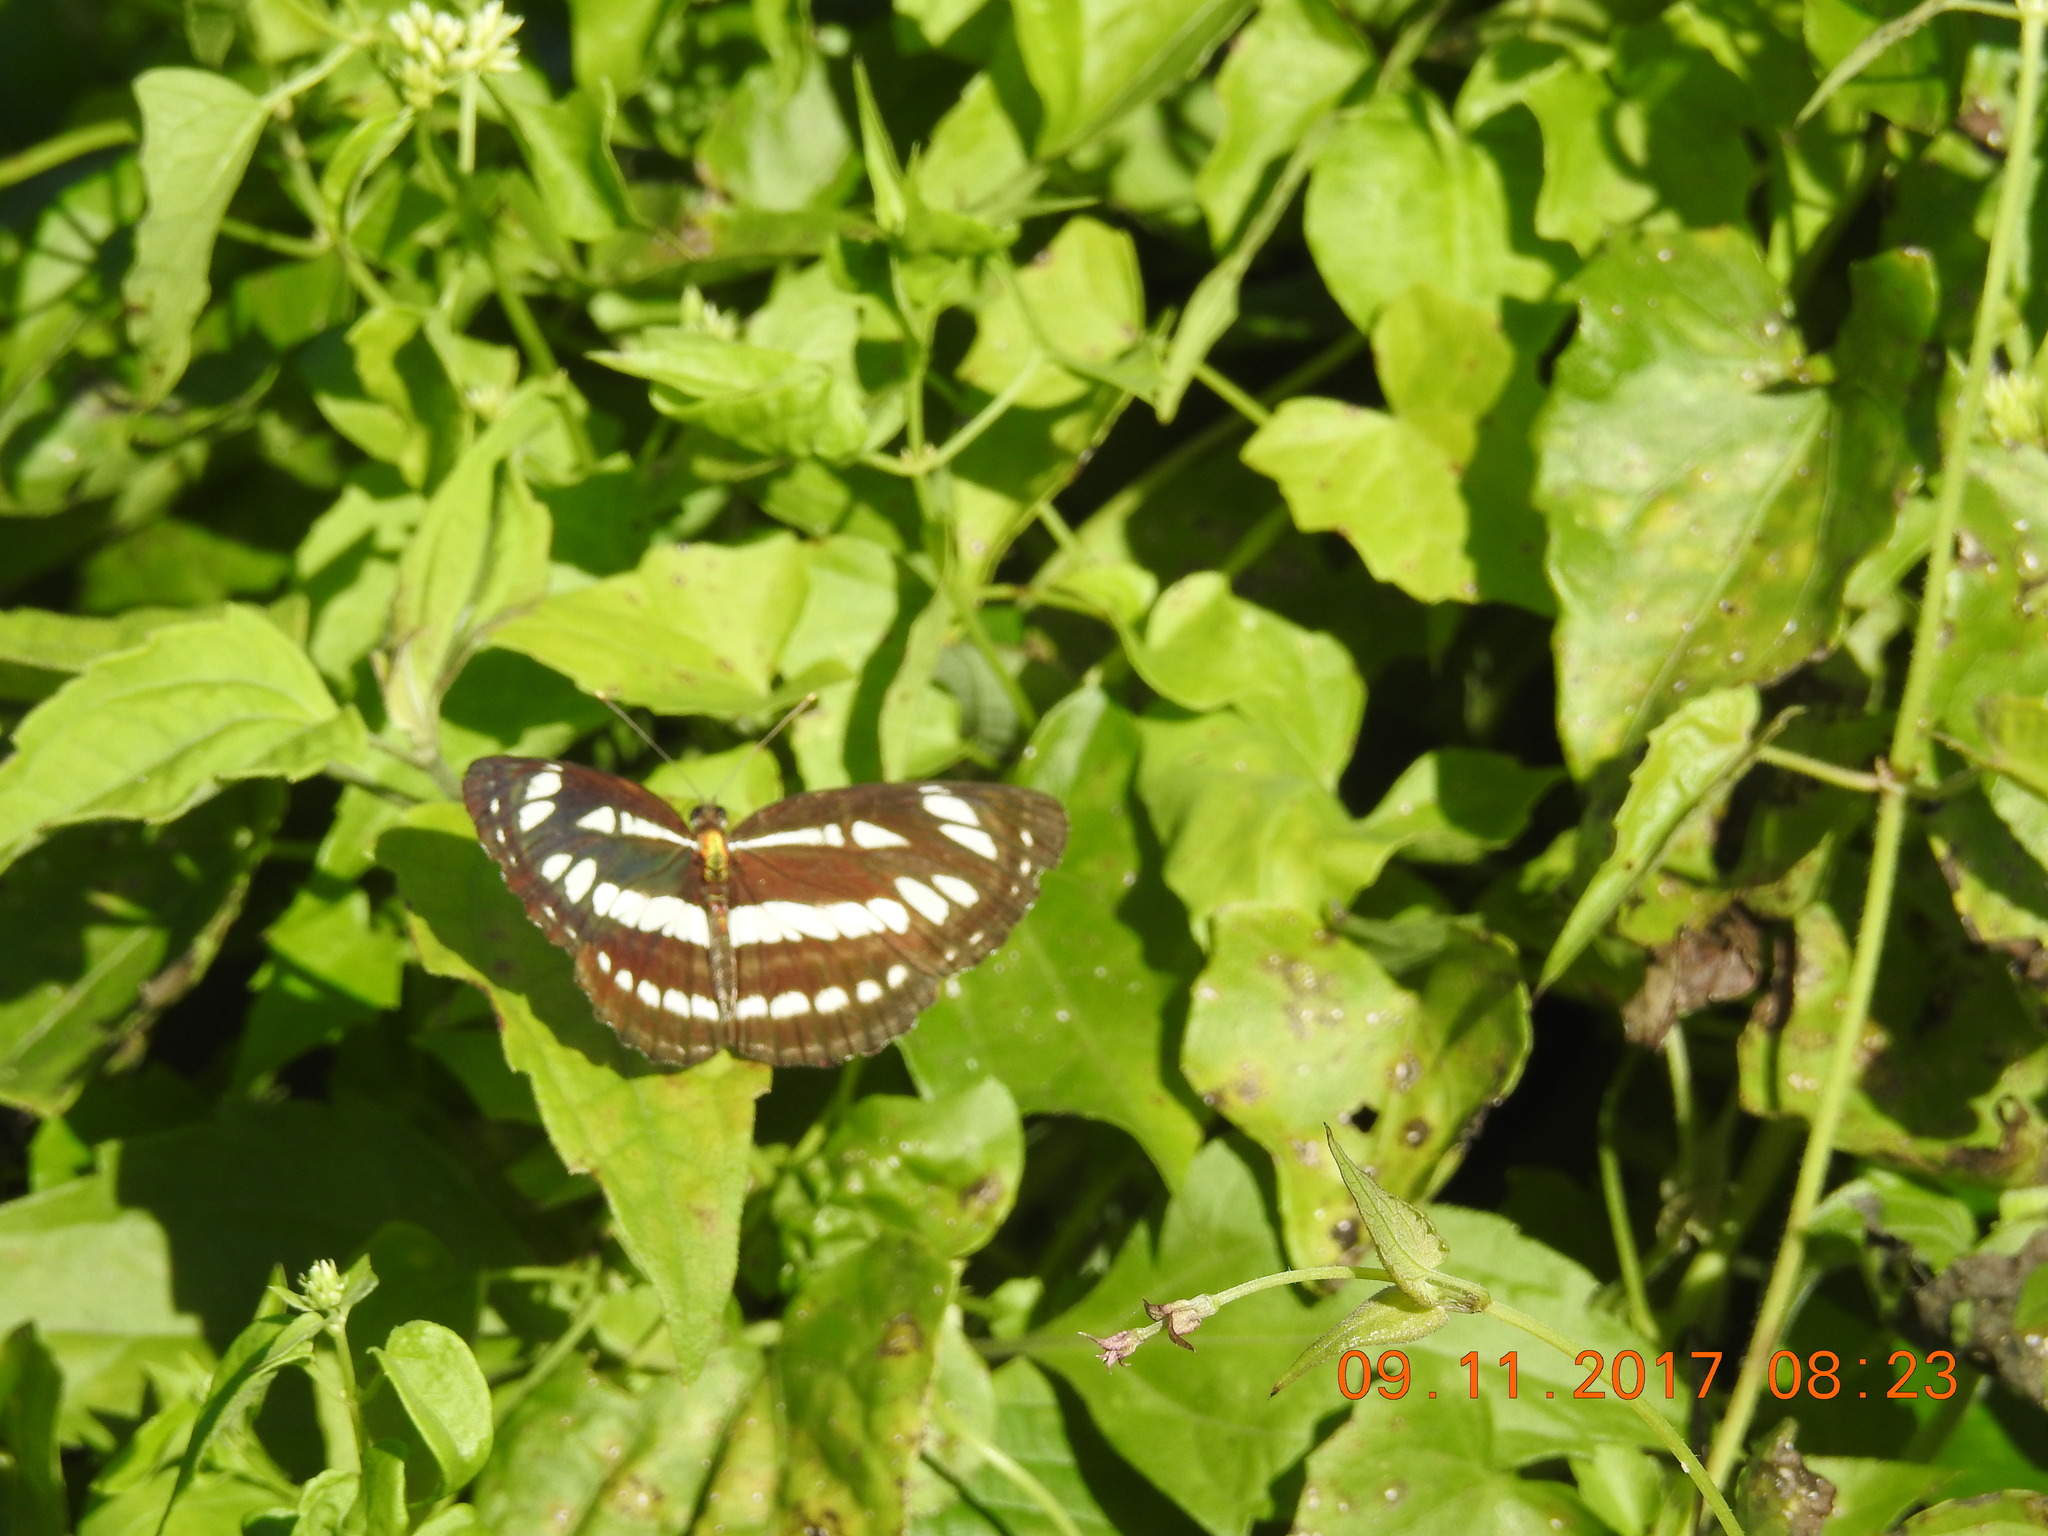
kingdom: Animalia
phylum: Arthropoda
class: Insecta
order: Lepidoptera
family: Nymphalidae
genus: Neptis
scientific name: Neptis hylas
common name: Common sailer
